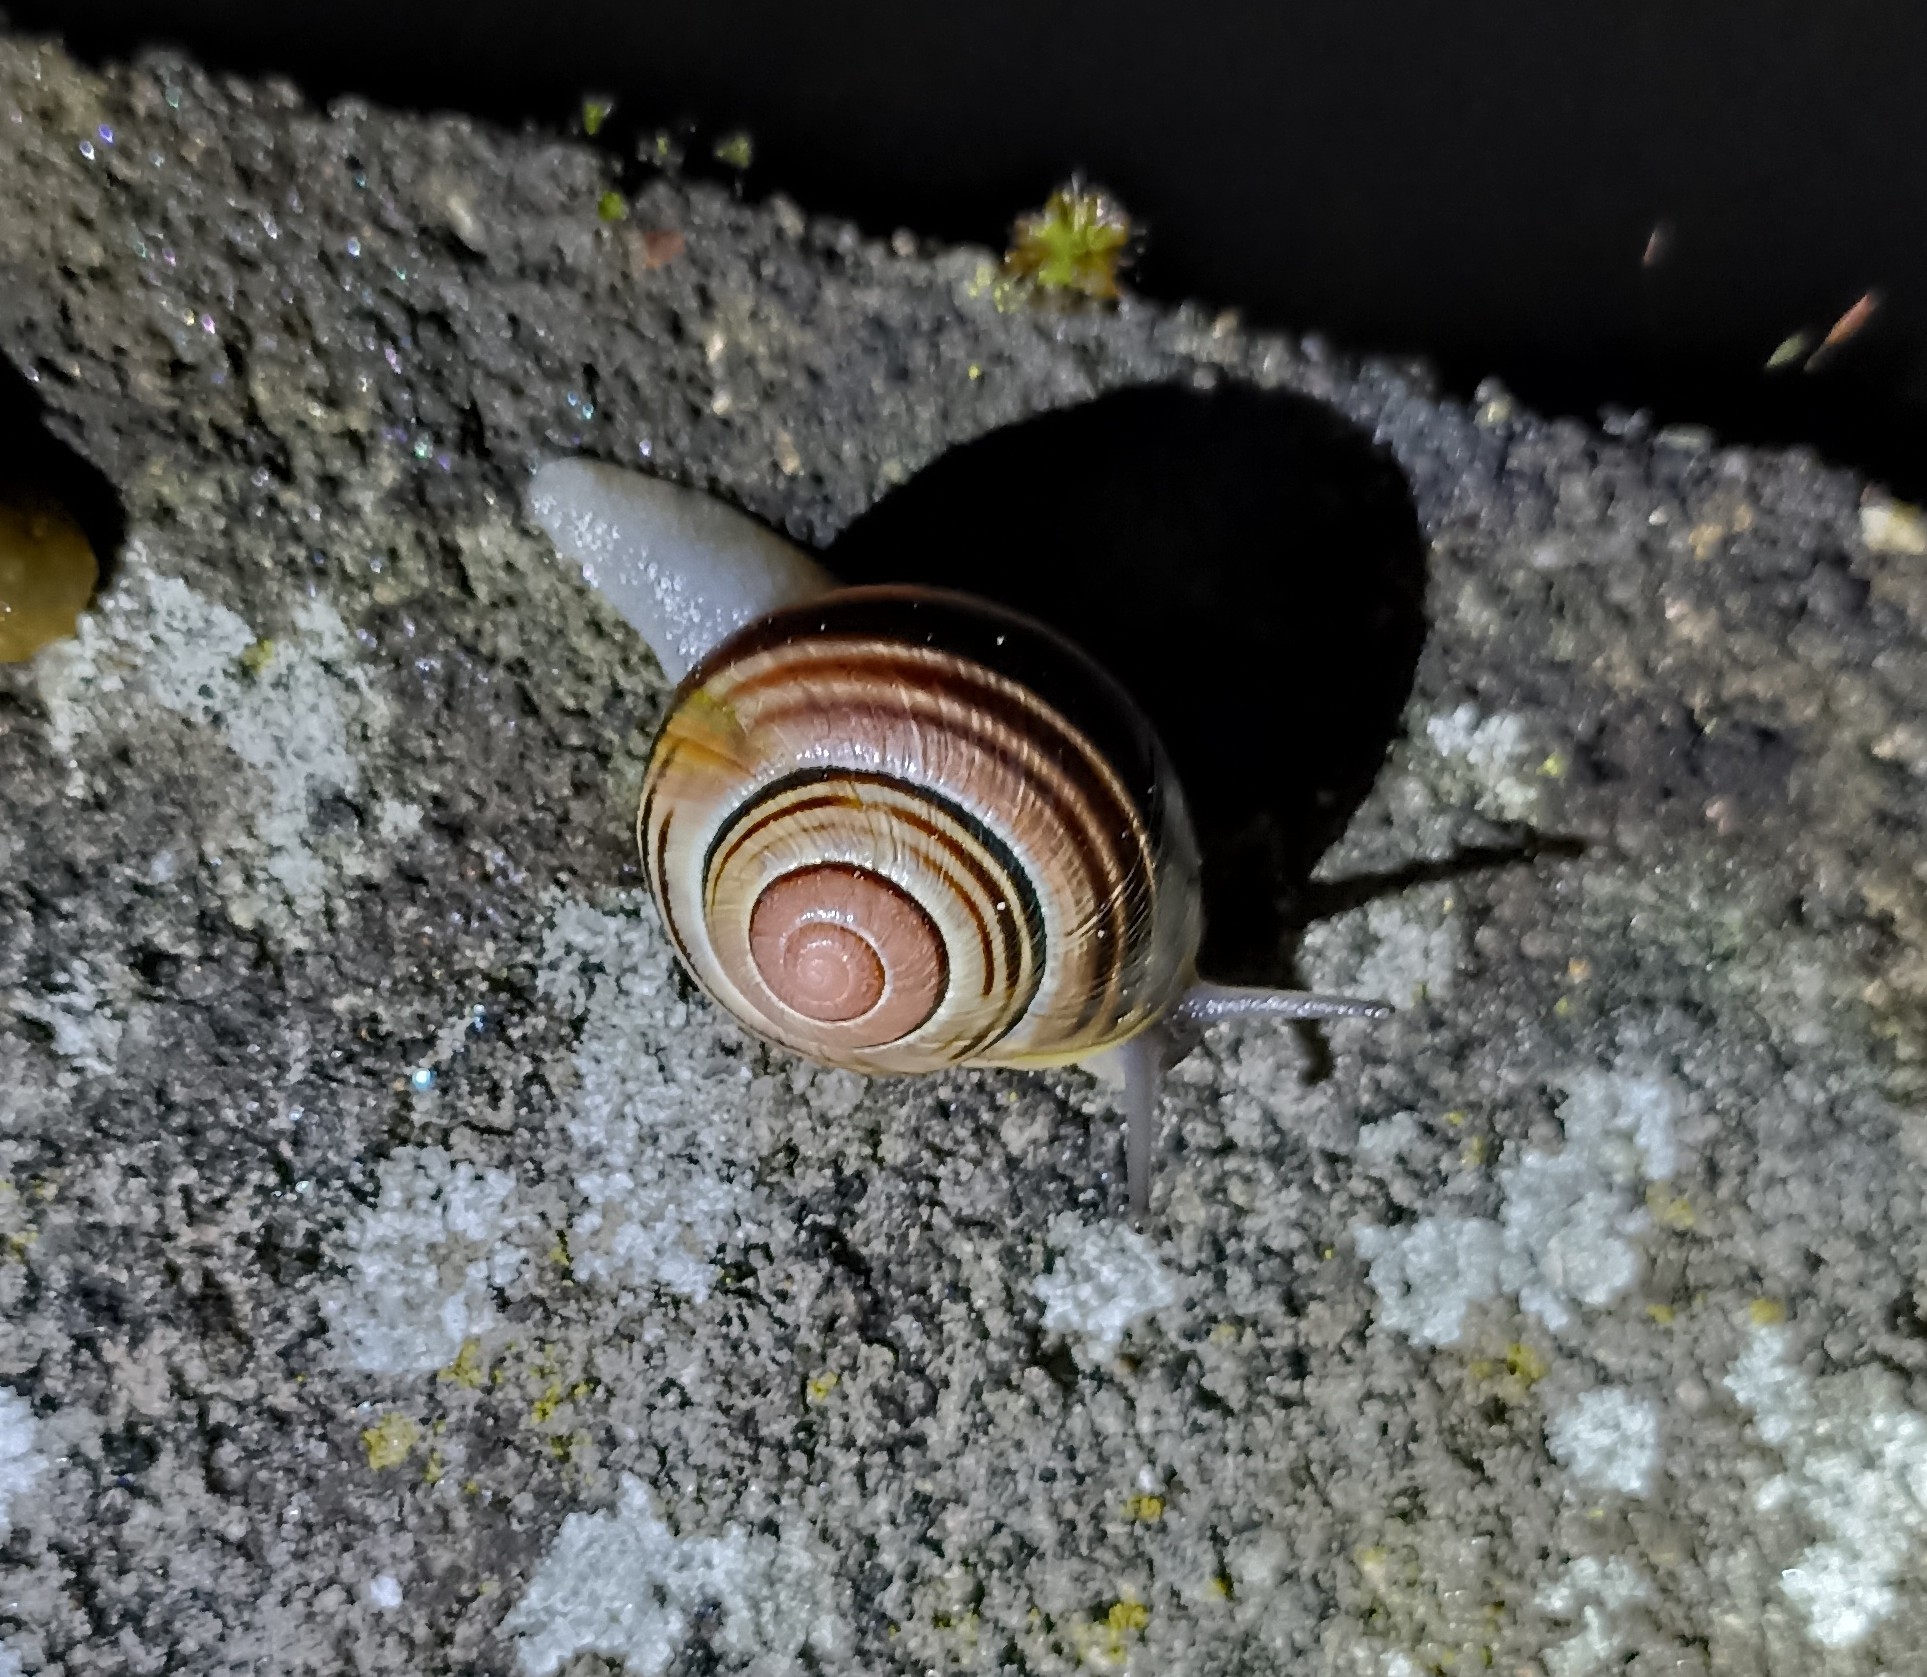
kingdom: Animalia
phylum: Mollusca
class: Gastropoda
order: Stylommatophora
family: Helicidae
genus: Cepaea
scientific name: Cepaea nemoralis
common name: Grovesnail
